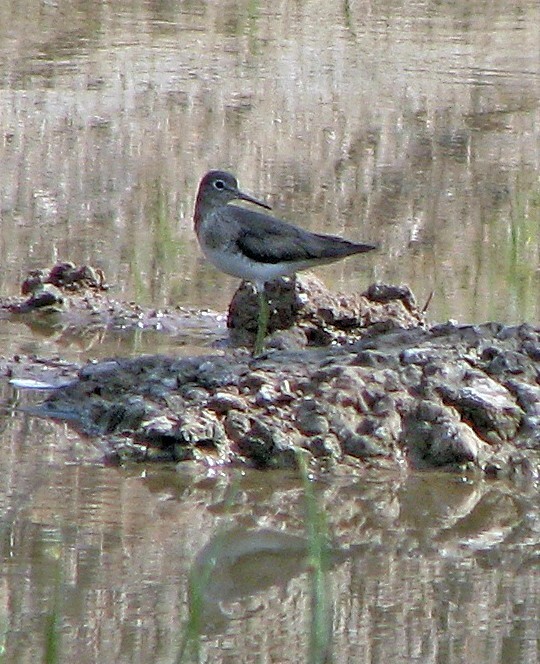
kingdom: Animalia
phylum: Chordata
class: Aves
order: Charadriiformes
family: Scolopacidae
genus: Tringa
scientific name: Tringa solitaria
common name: Solitary sandpiper
